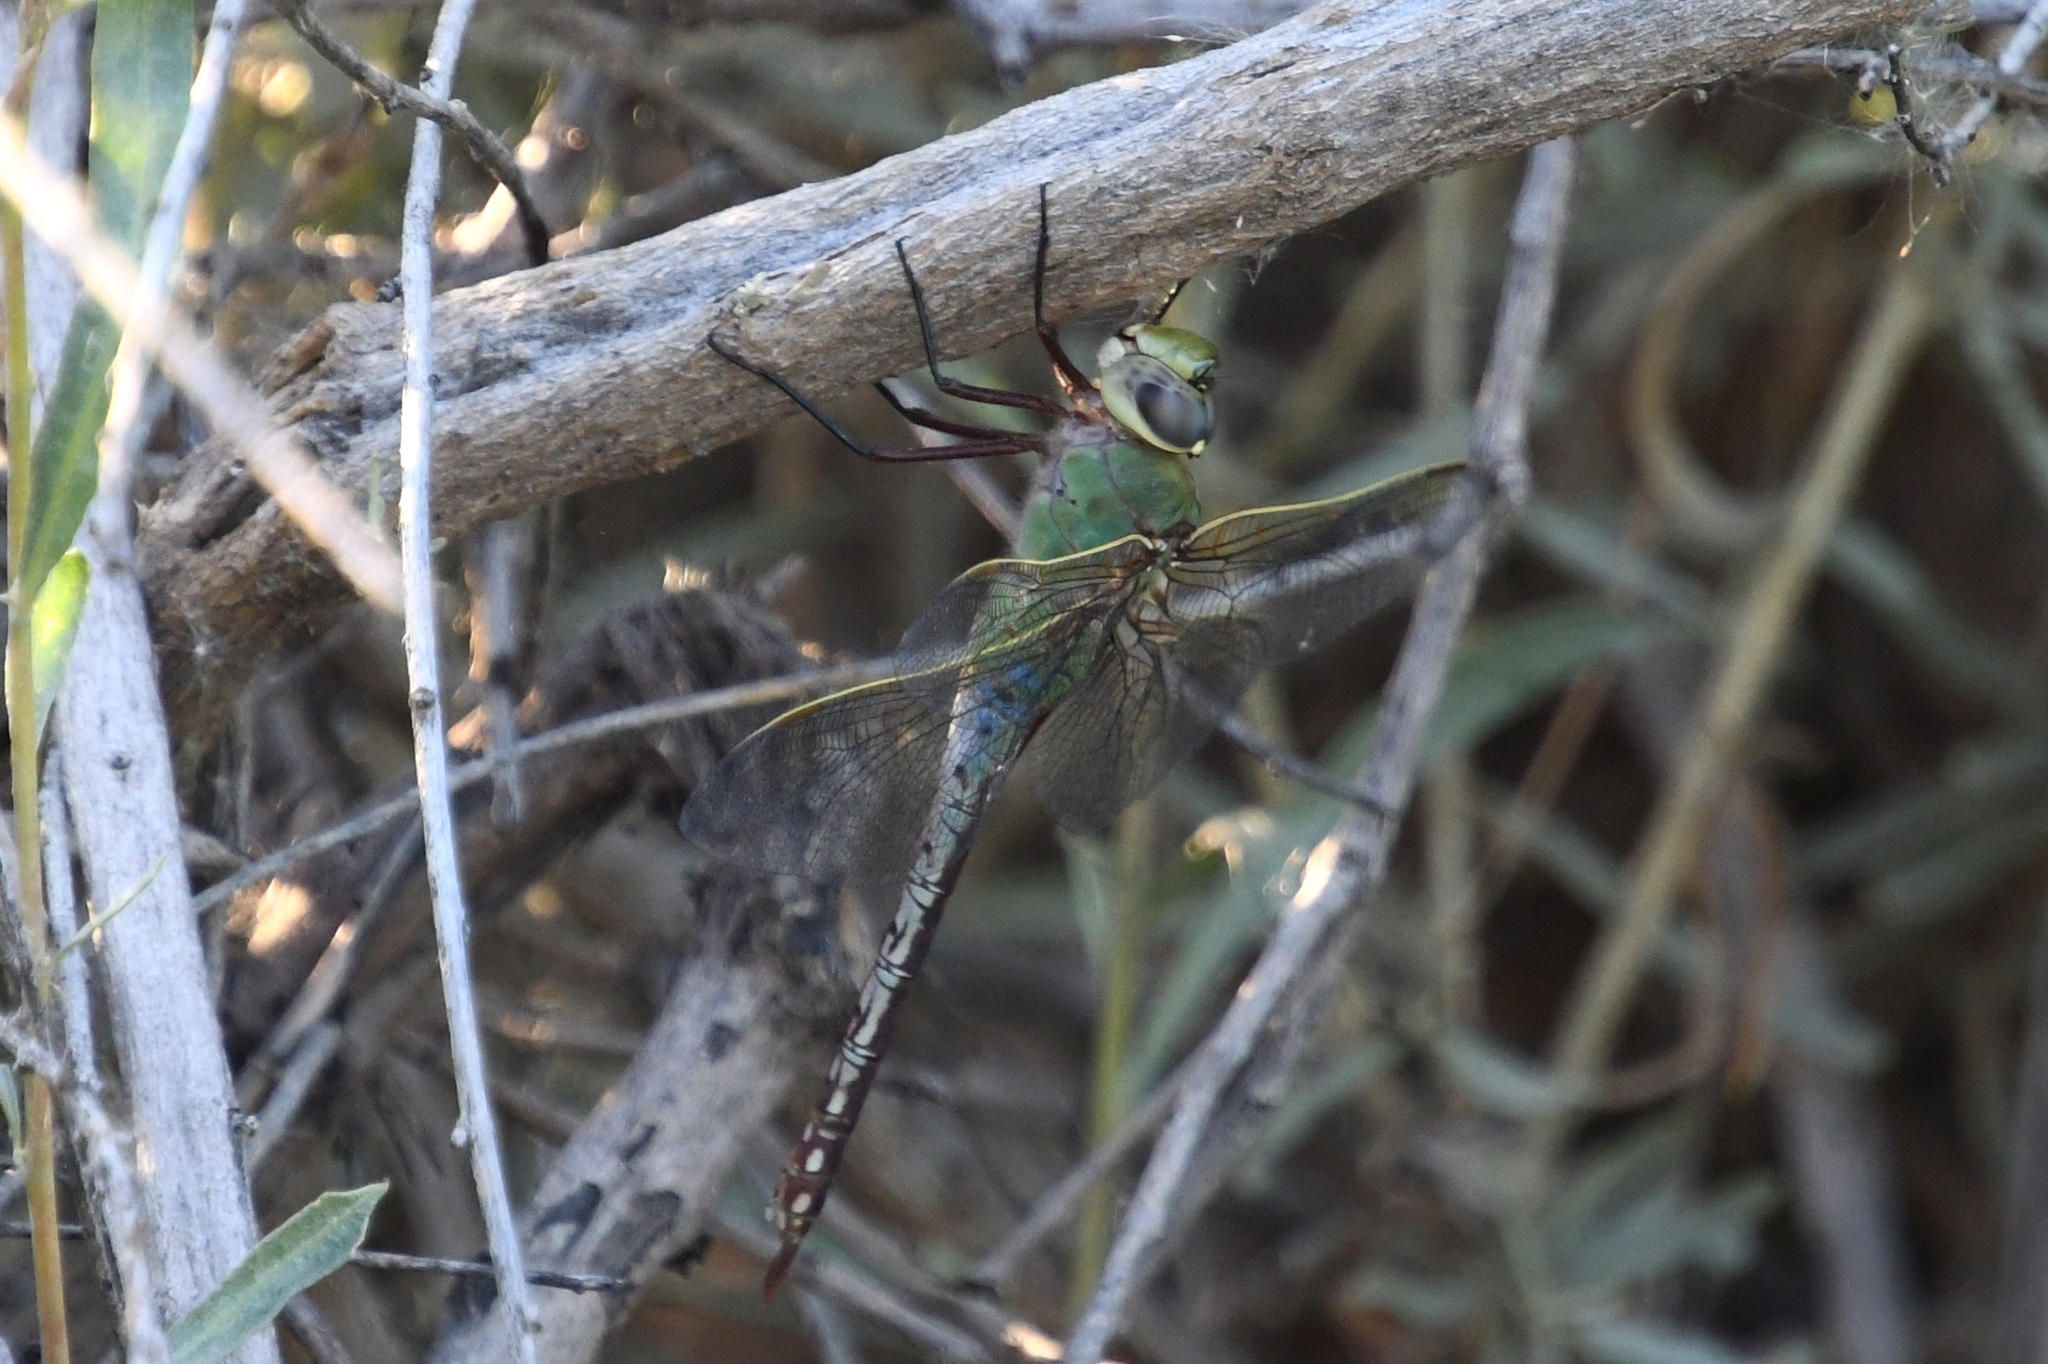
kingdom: Animalia
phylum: Arthropoda
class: Insecta
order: Odonata
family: Aeshnidae
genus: Anax
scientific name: Anax junius
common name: Common green darner
